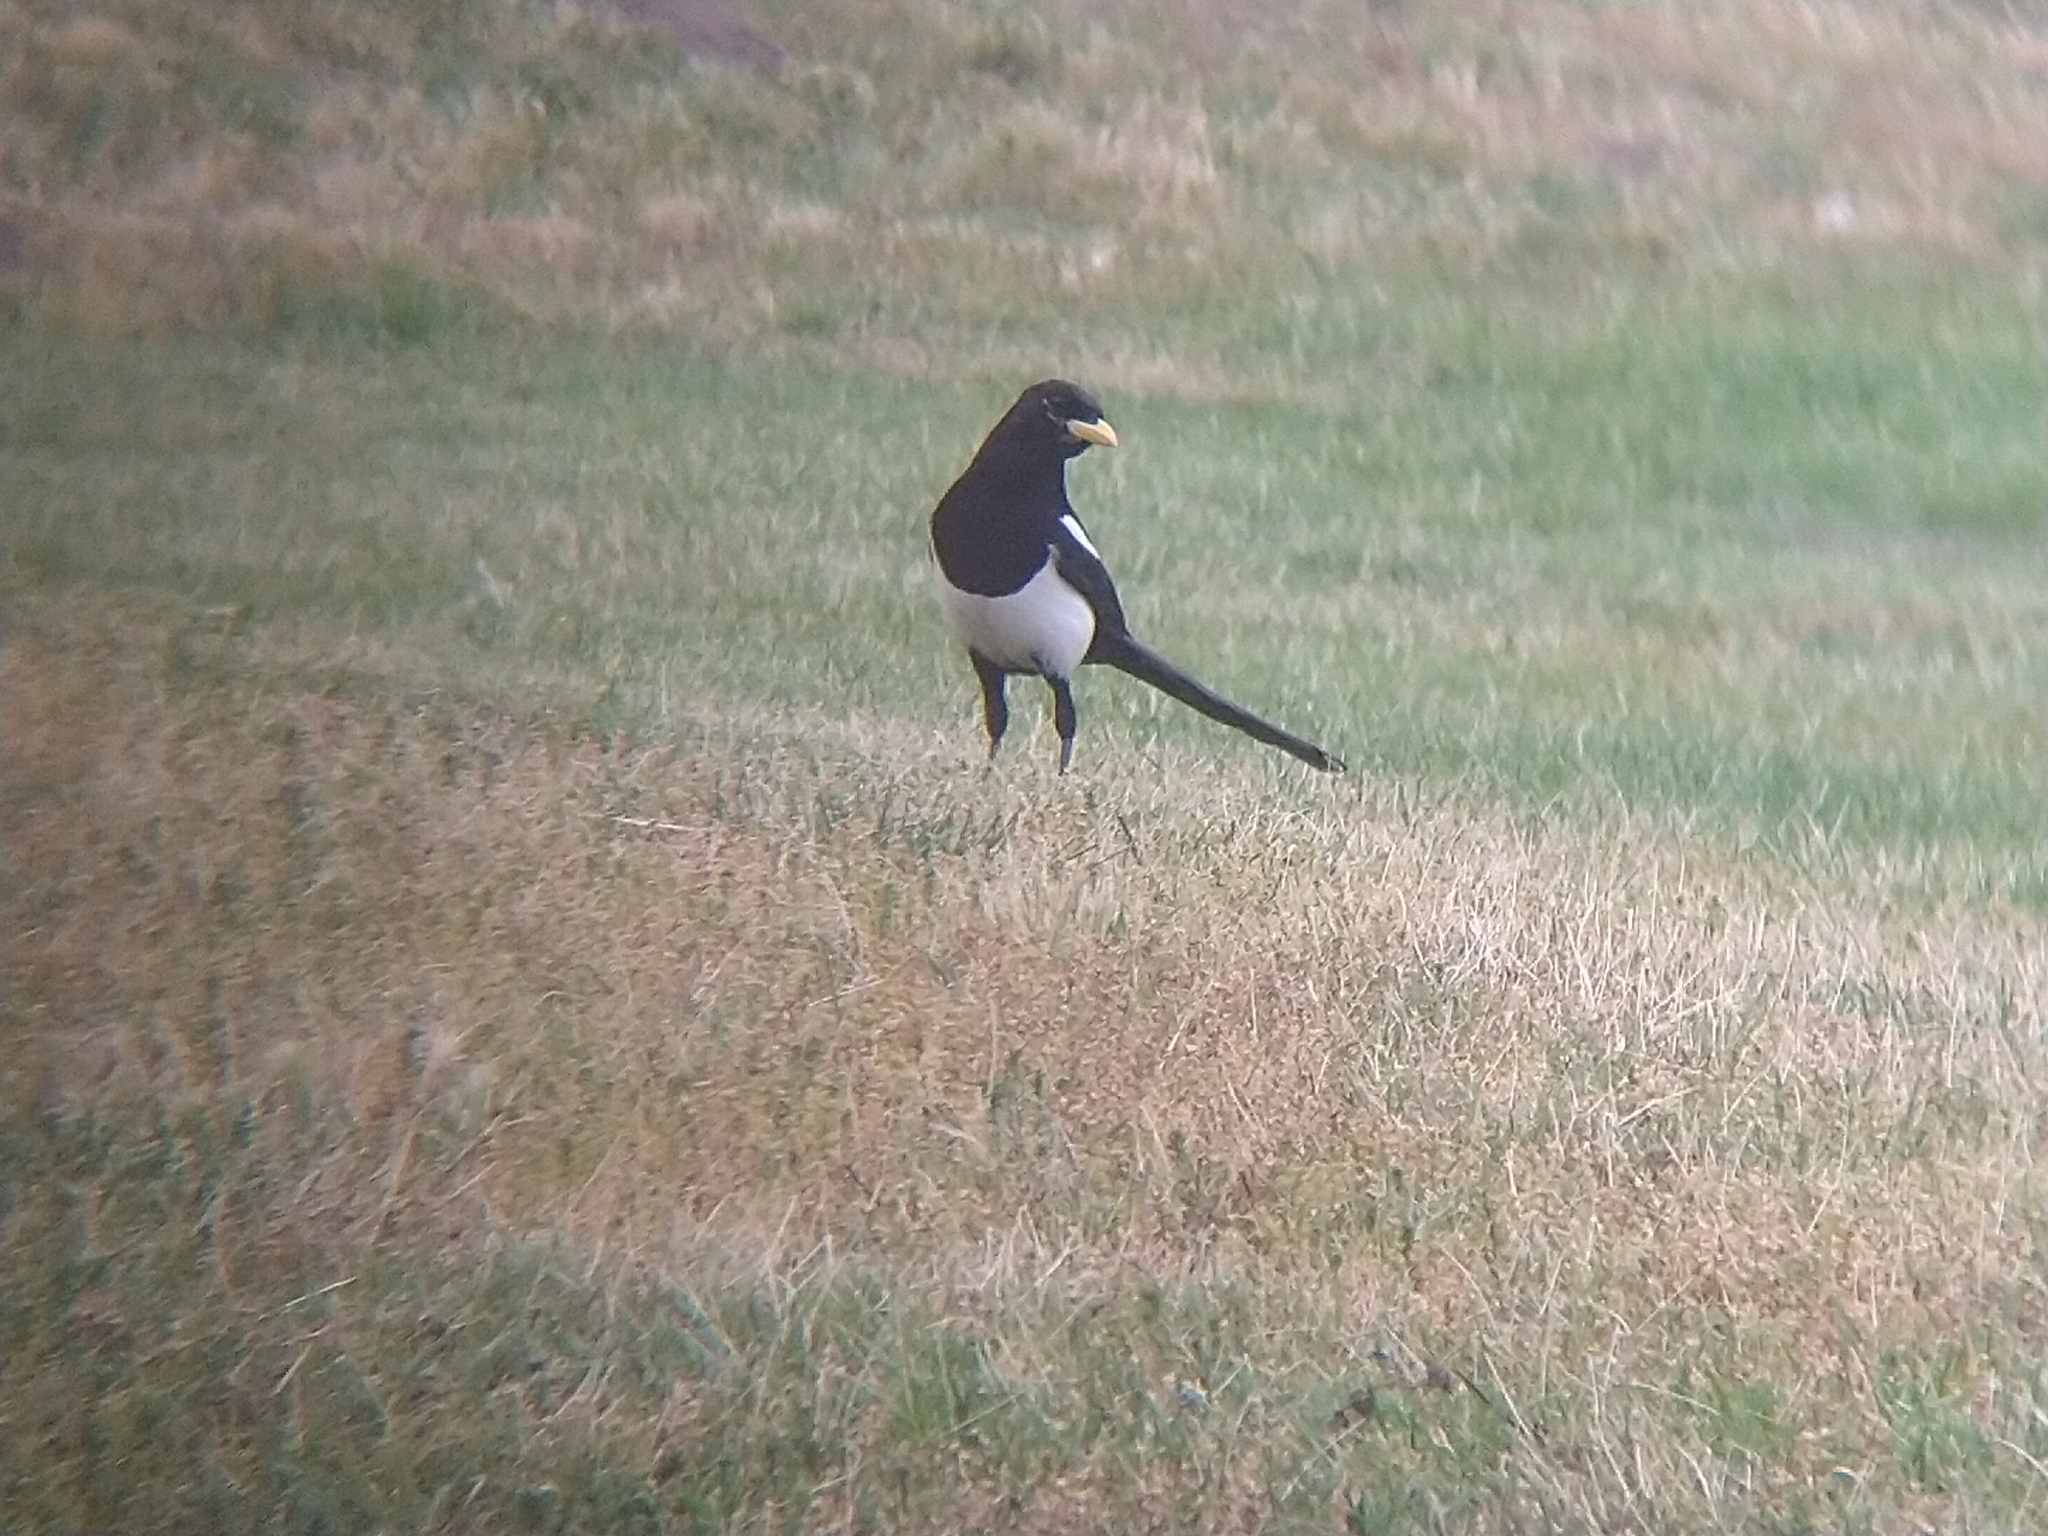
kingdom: Animalia
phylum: Chordata
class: Aves
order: Passeriformes
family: Corvidae
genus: Pica
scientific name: Pica nuttalli
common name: Yellow-billed magpie
